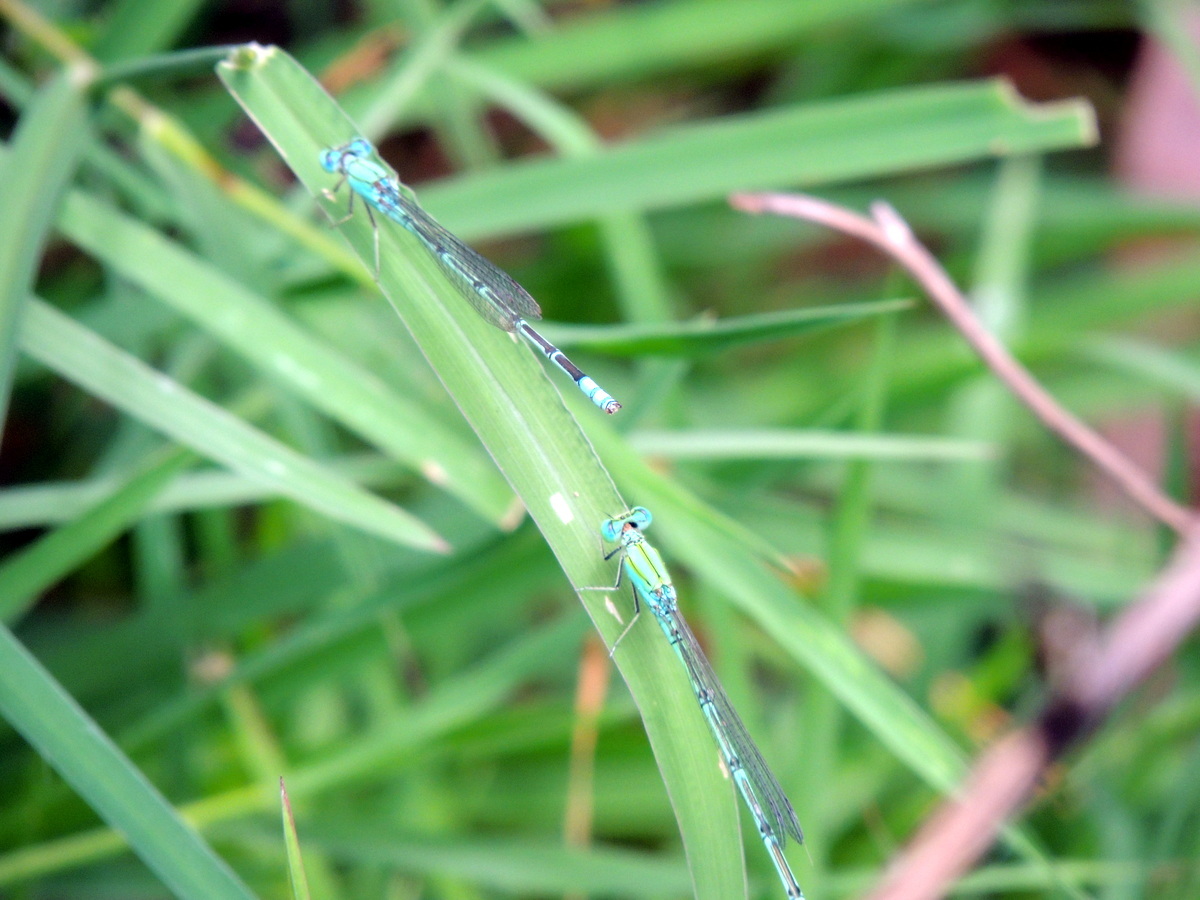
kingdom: Animalia
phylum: Arthropoda
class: Insecta
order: Odonata
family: Coenagrionidae
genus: Pseudagrion
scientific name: Pseudagrion decorum
